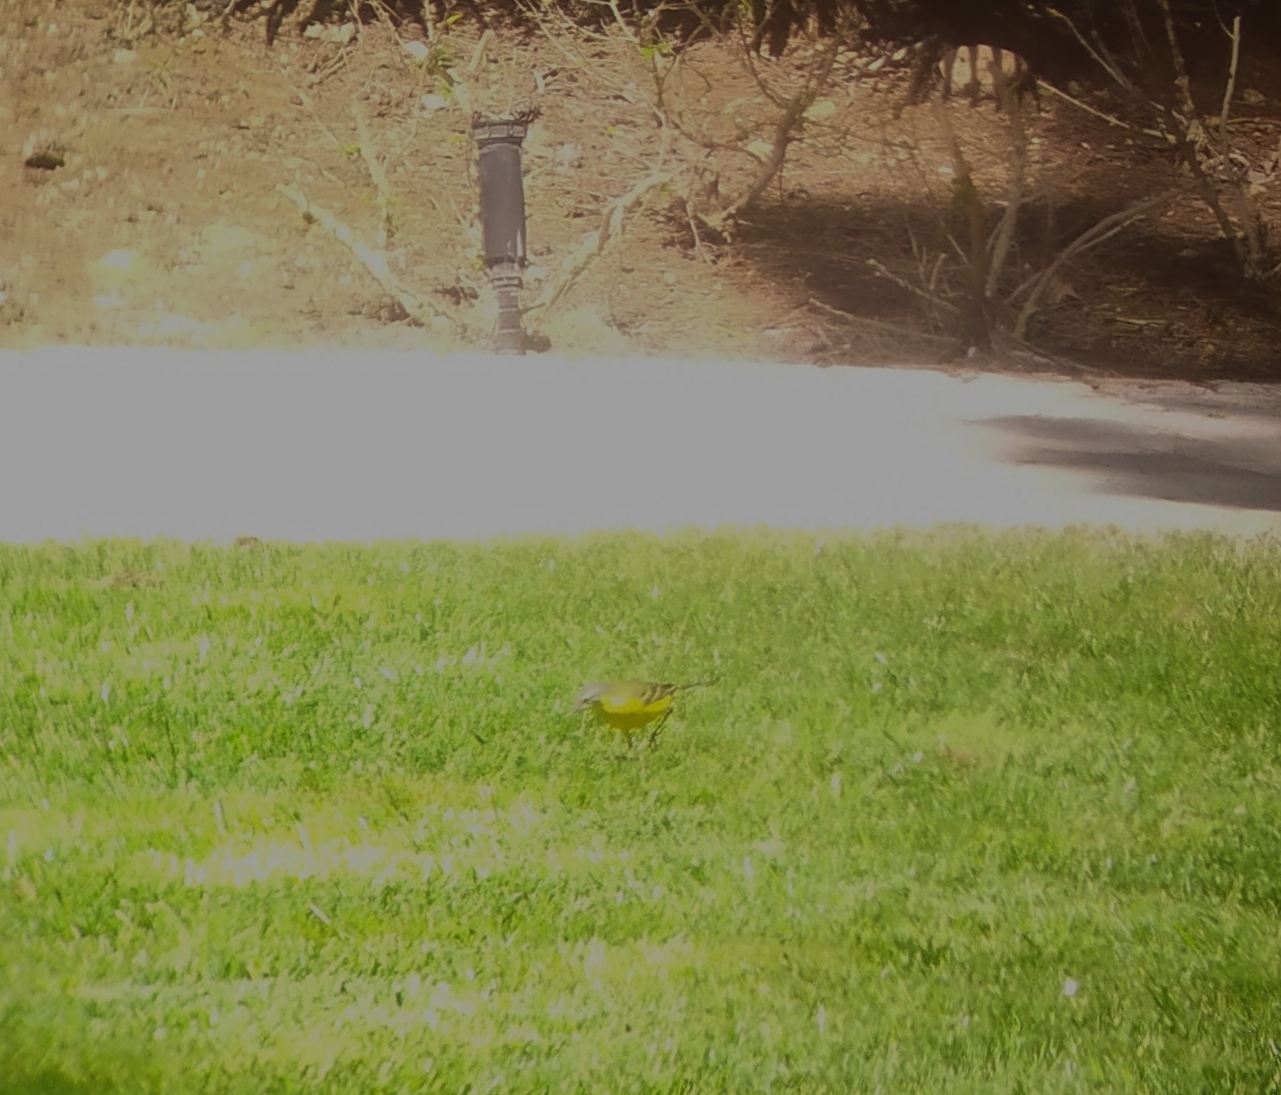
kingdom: Animalia
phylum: Chordata
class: Aves
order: Passeriformes
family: Motacillidae
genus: Motacilla
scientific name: Motacilla flava
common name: Western yellow wagtail
